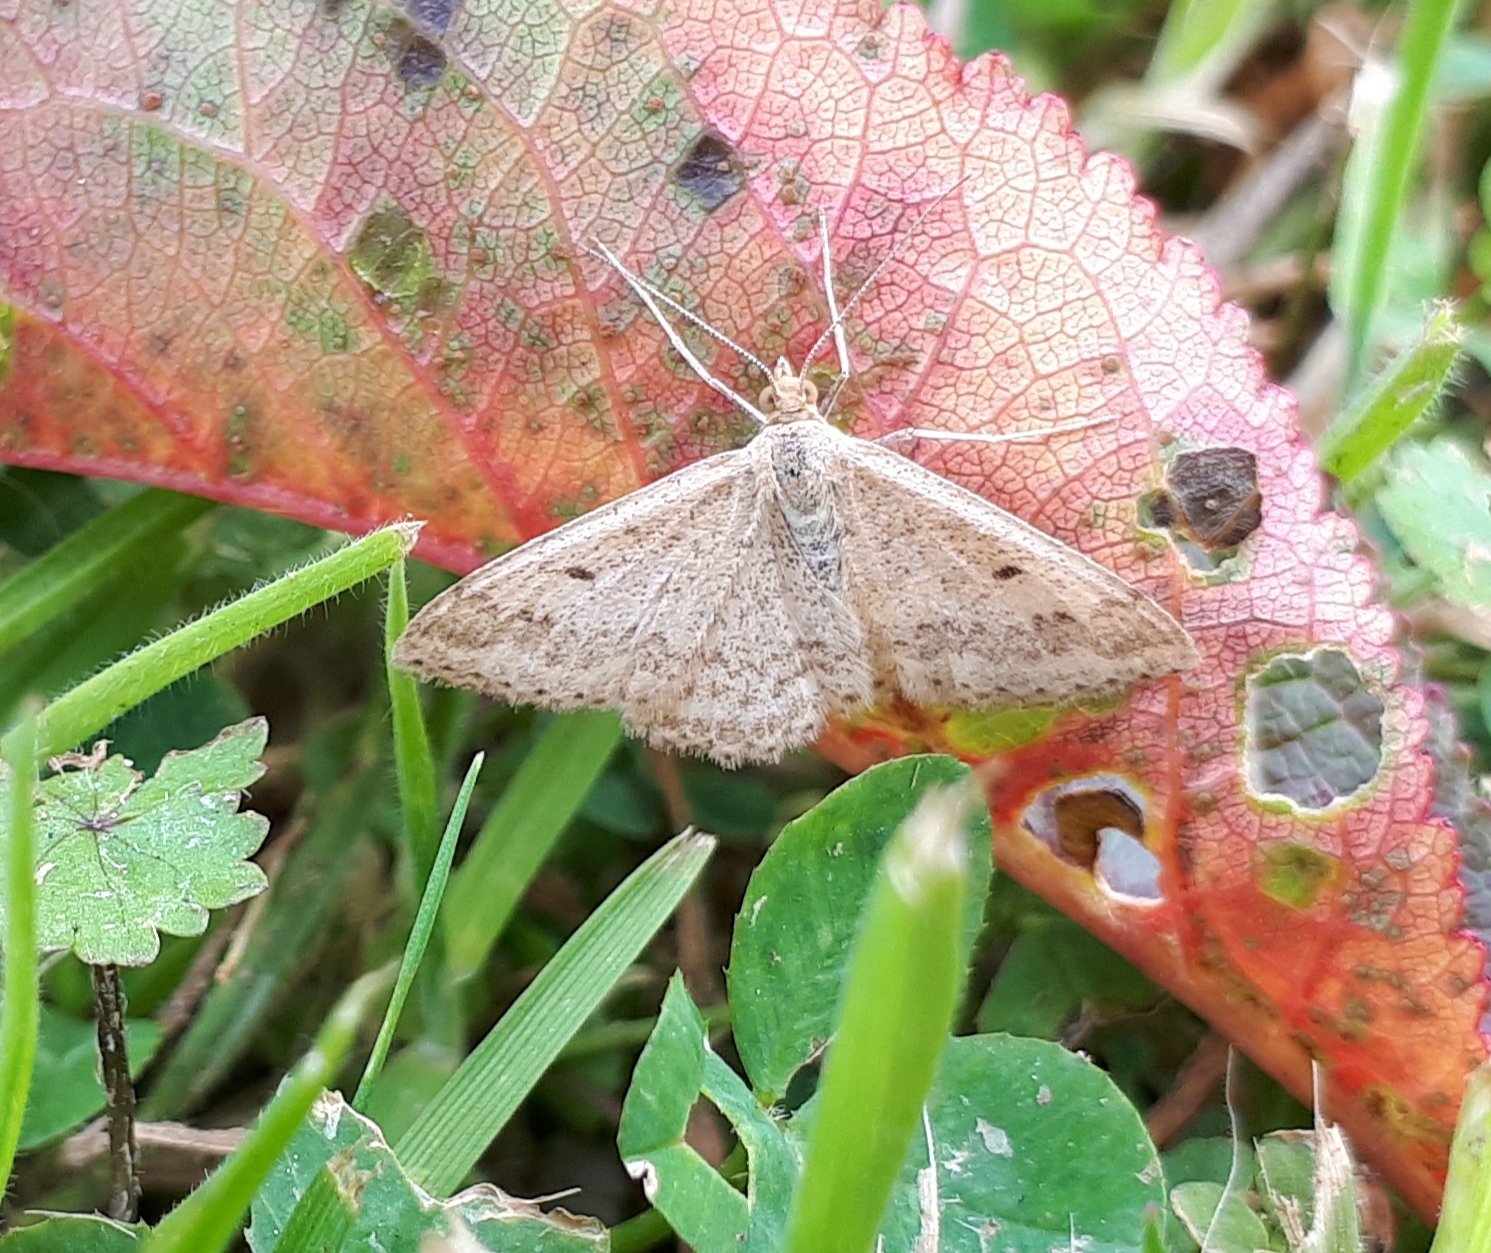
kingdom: Animalia
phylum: Arthropoda
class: Insecta
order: Lepidoptera
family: Geometridae
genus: Scopula
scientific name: Scopula rubraria
